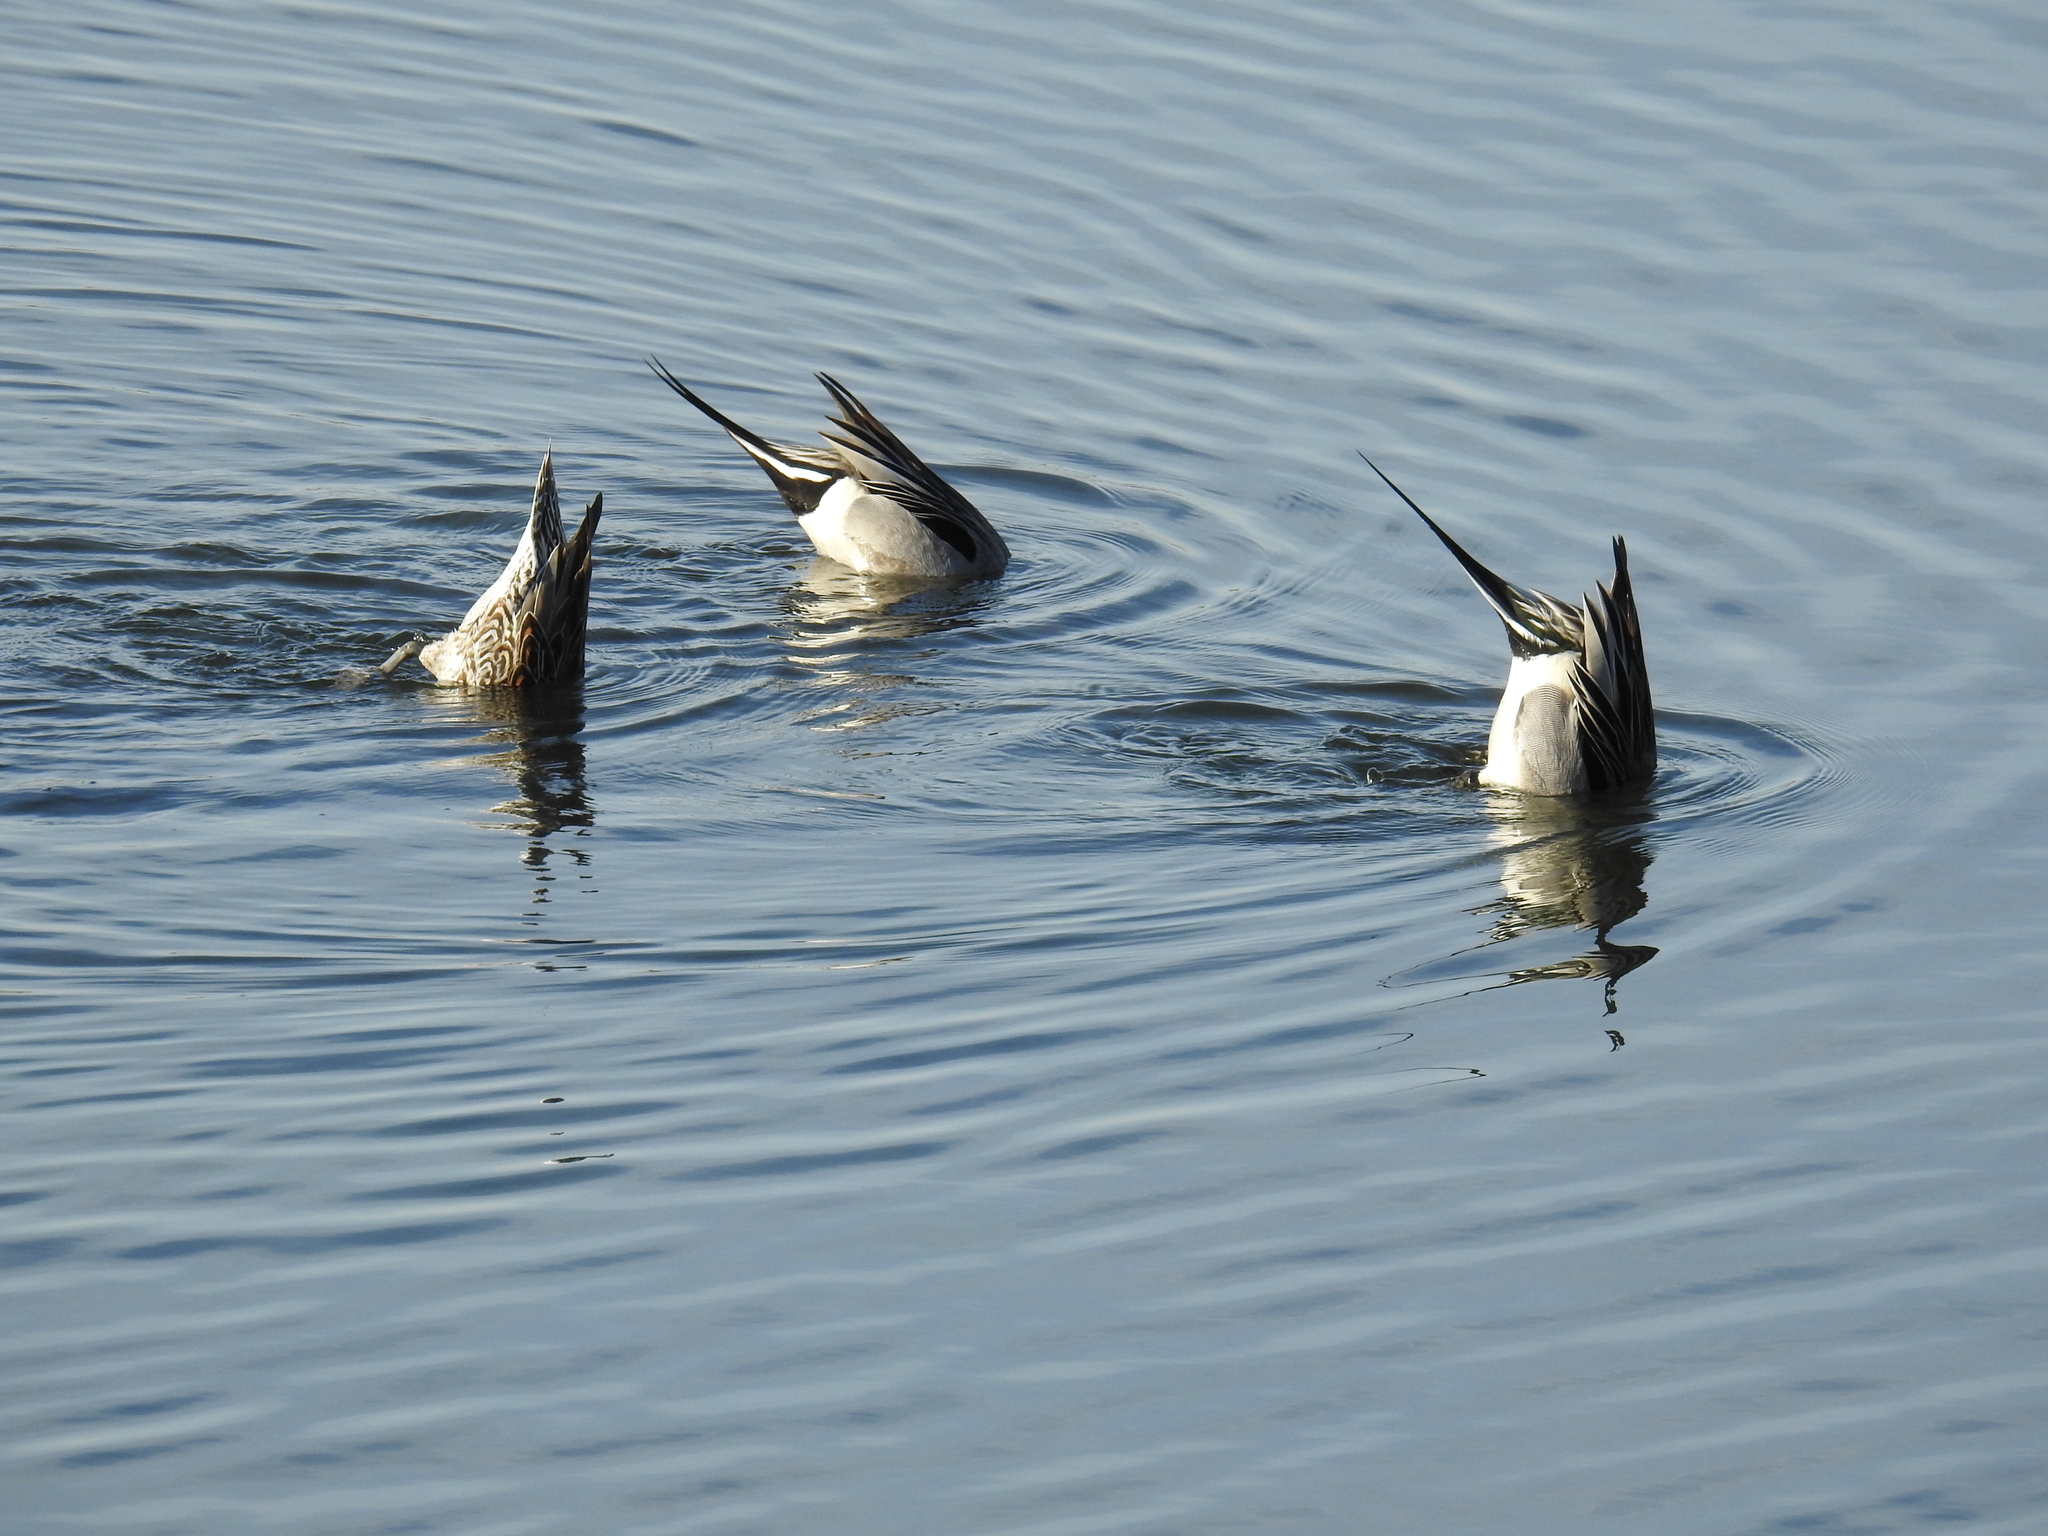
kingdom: Animalia
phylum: Chordata
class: Aves
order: Anseriformes
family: Anatidae
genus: Anas
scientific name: Anas acuta
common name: Northern pintail
